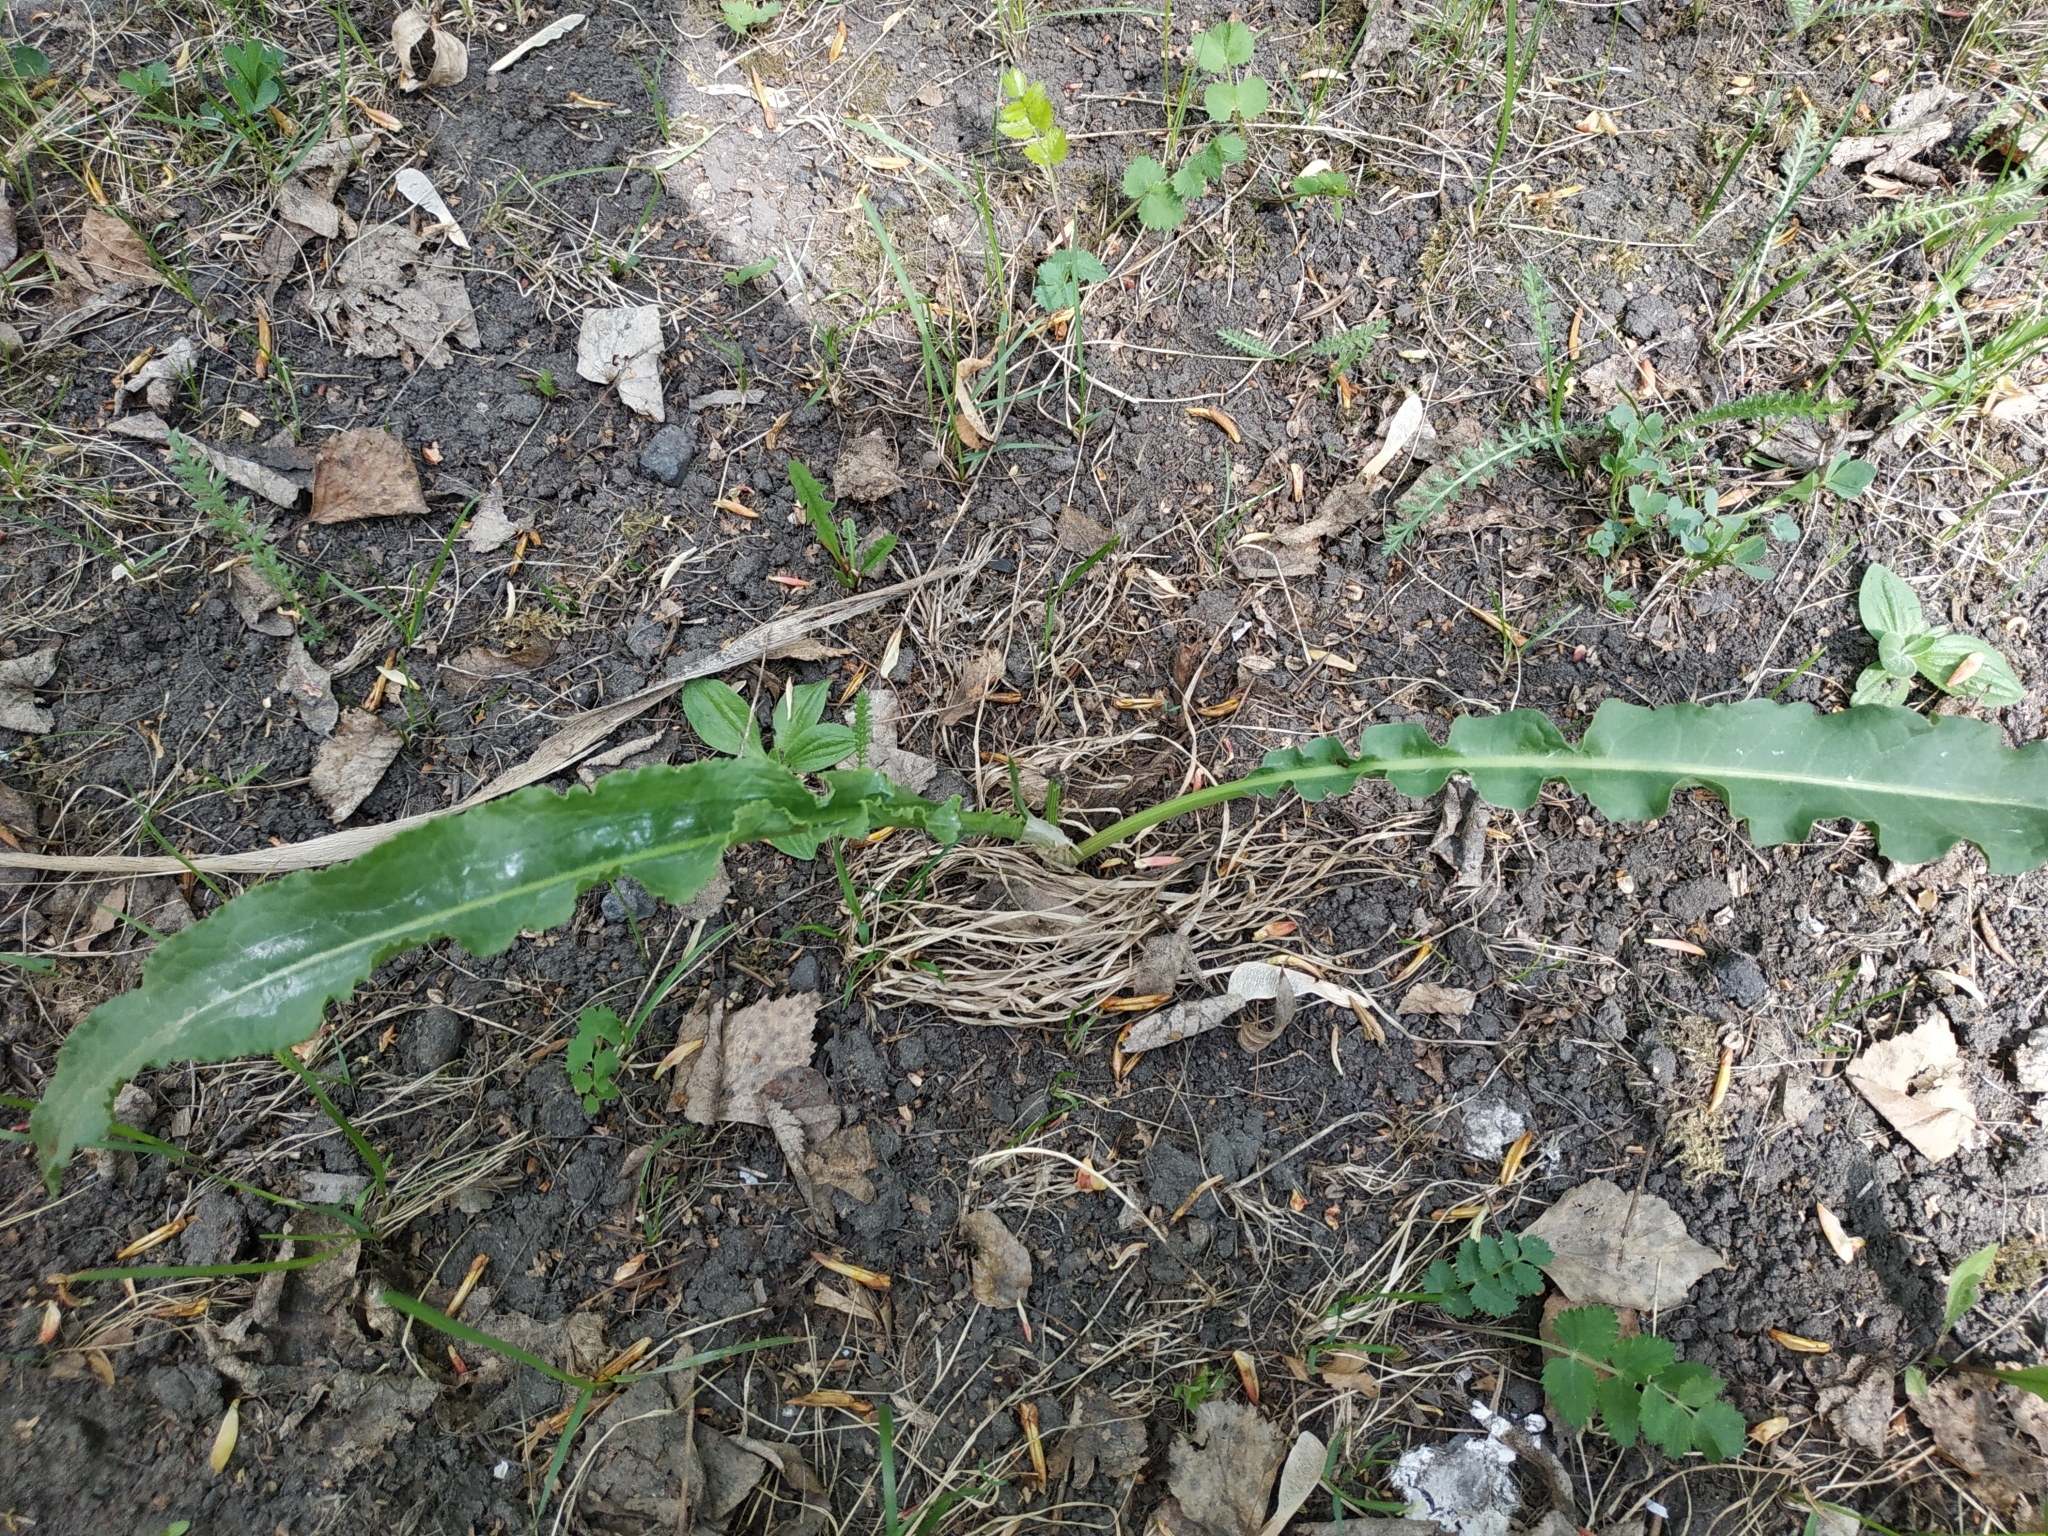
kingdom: Plantae
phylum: Tracheophyta
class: Magnoliopsida
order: Caryophyllales
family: Polygonaceae
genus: Rumex
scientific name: Rumex pseudonatronatus
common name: Field dock
